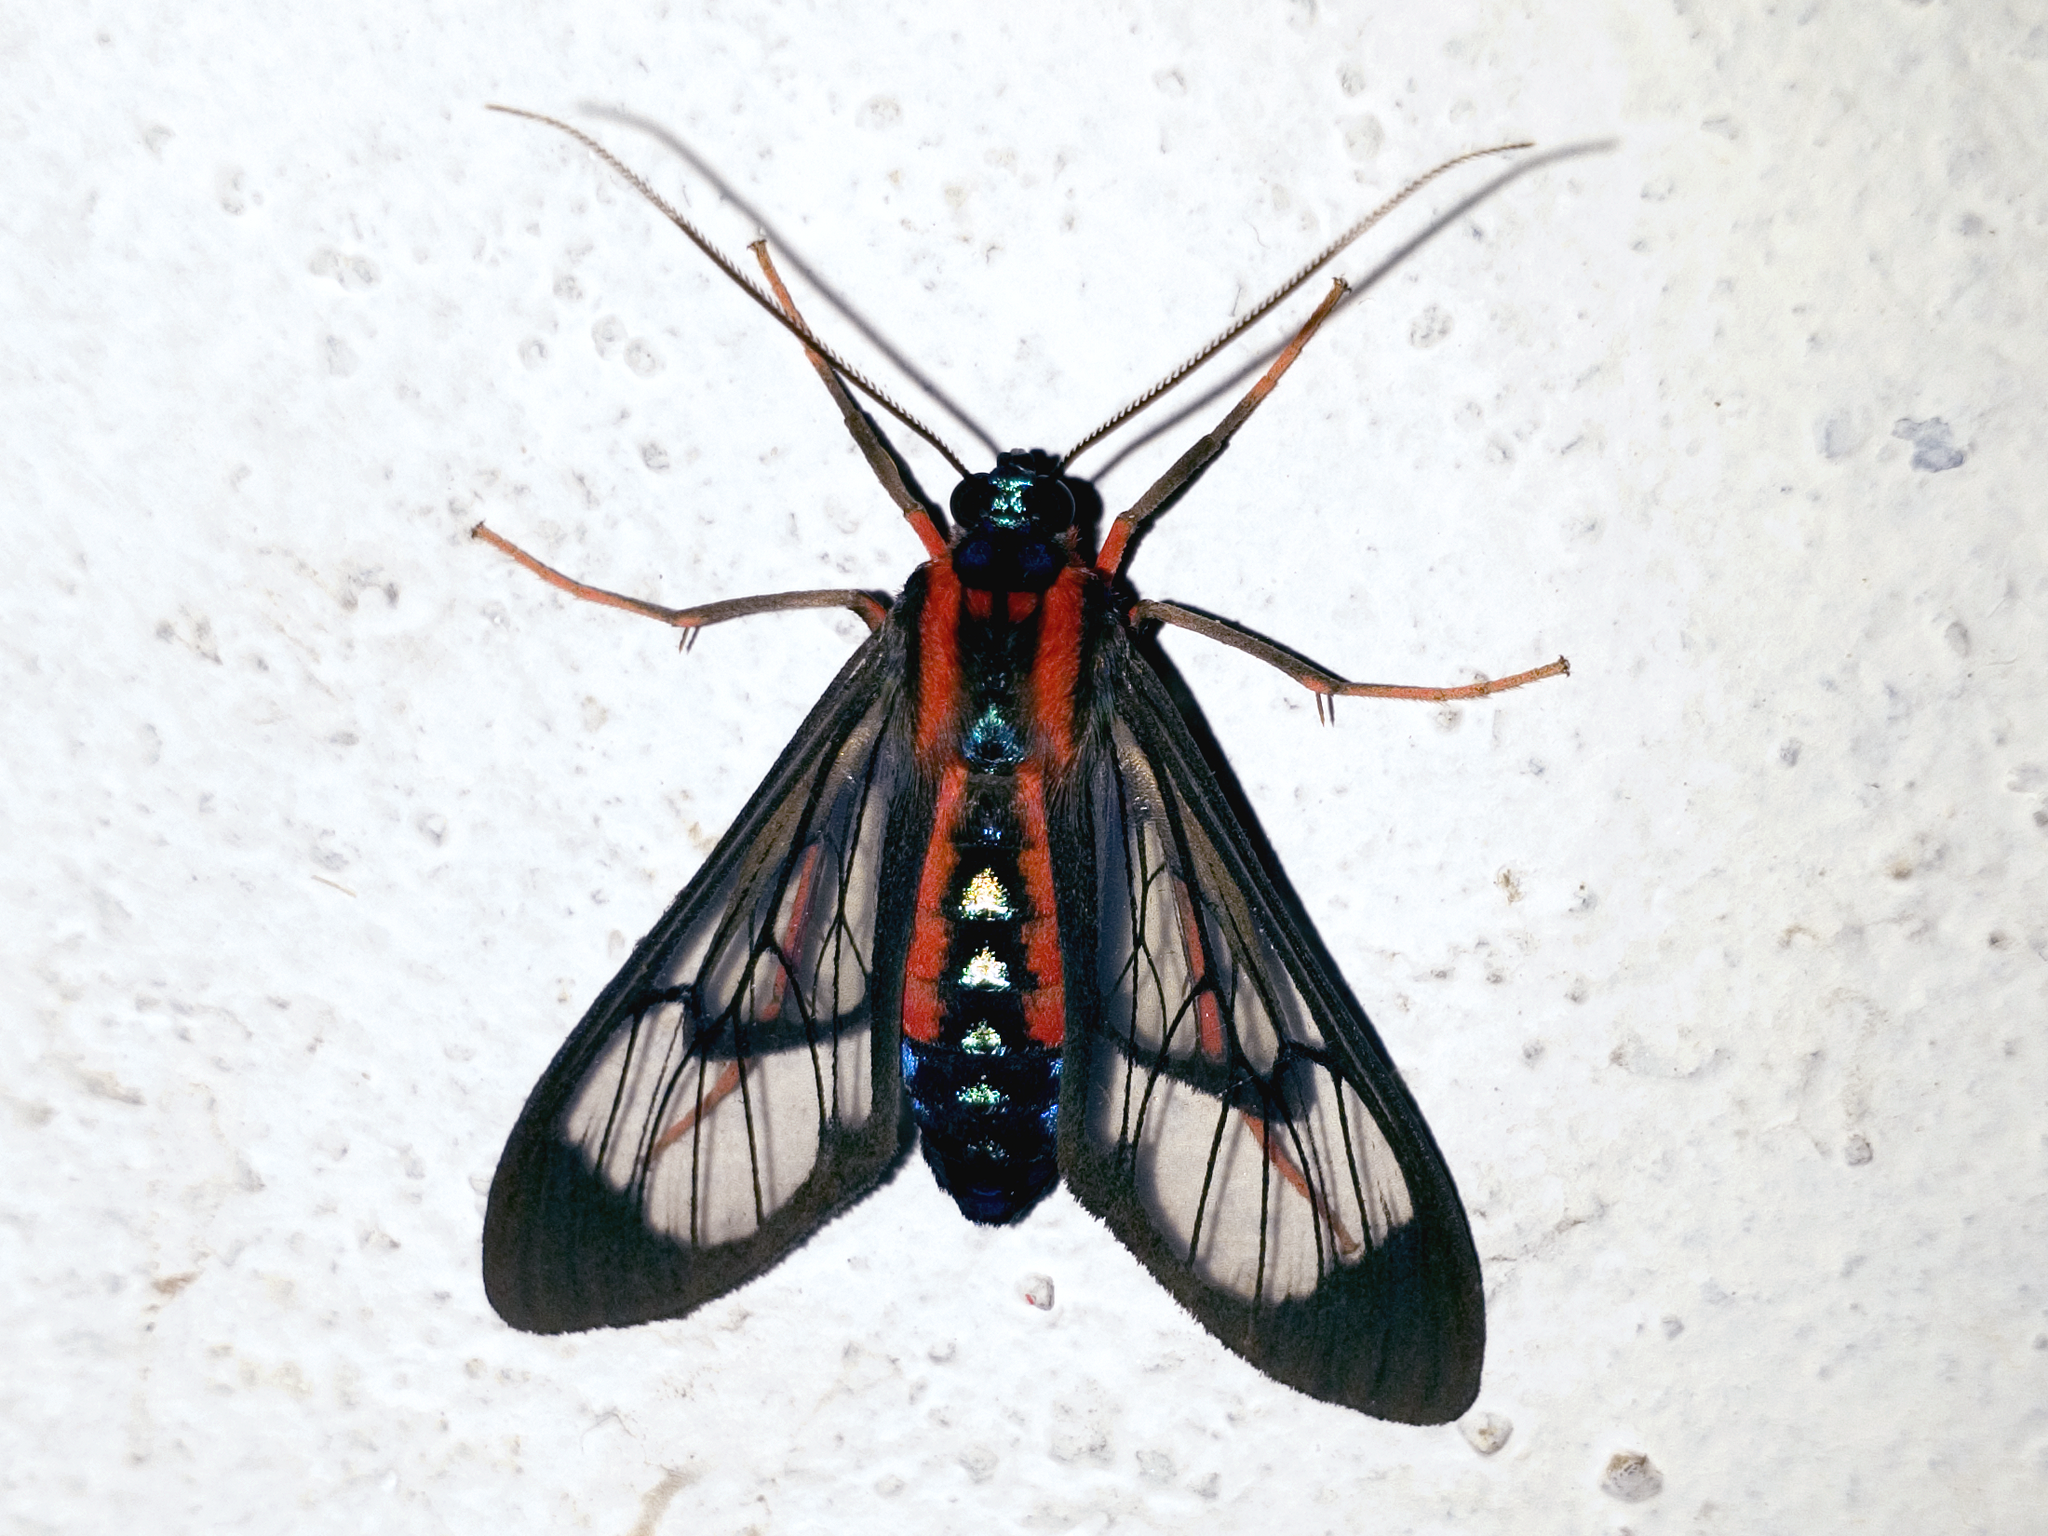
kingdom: Animalia
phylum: Arthropoda
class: Insecta
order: Lepidoptera
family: Erebidae
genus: Cosmosoma
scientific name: Cosmosoma auge
